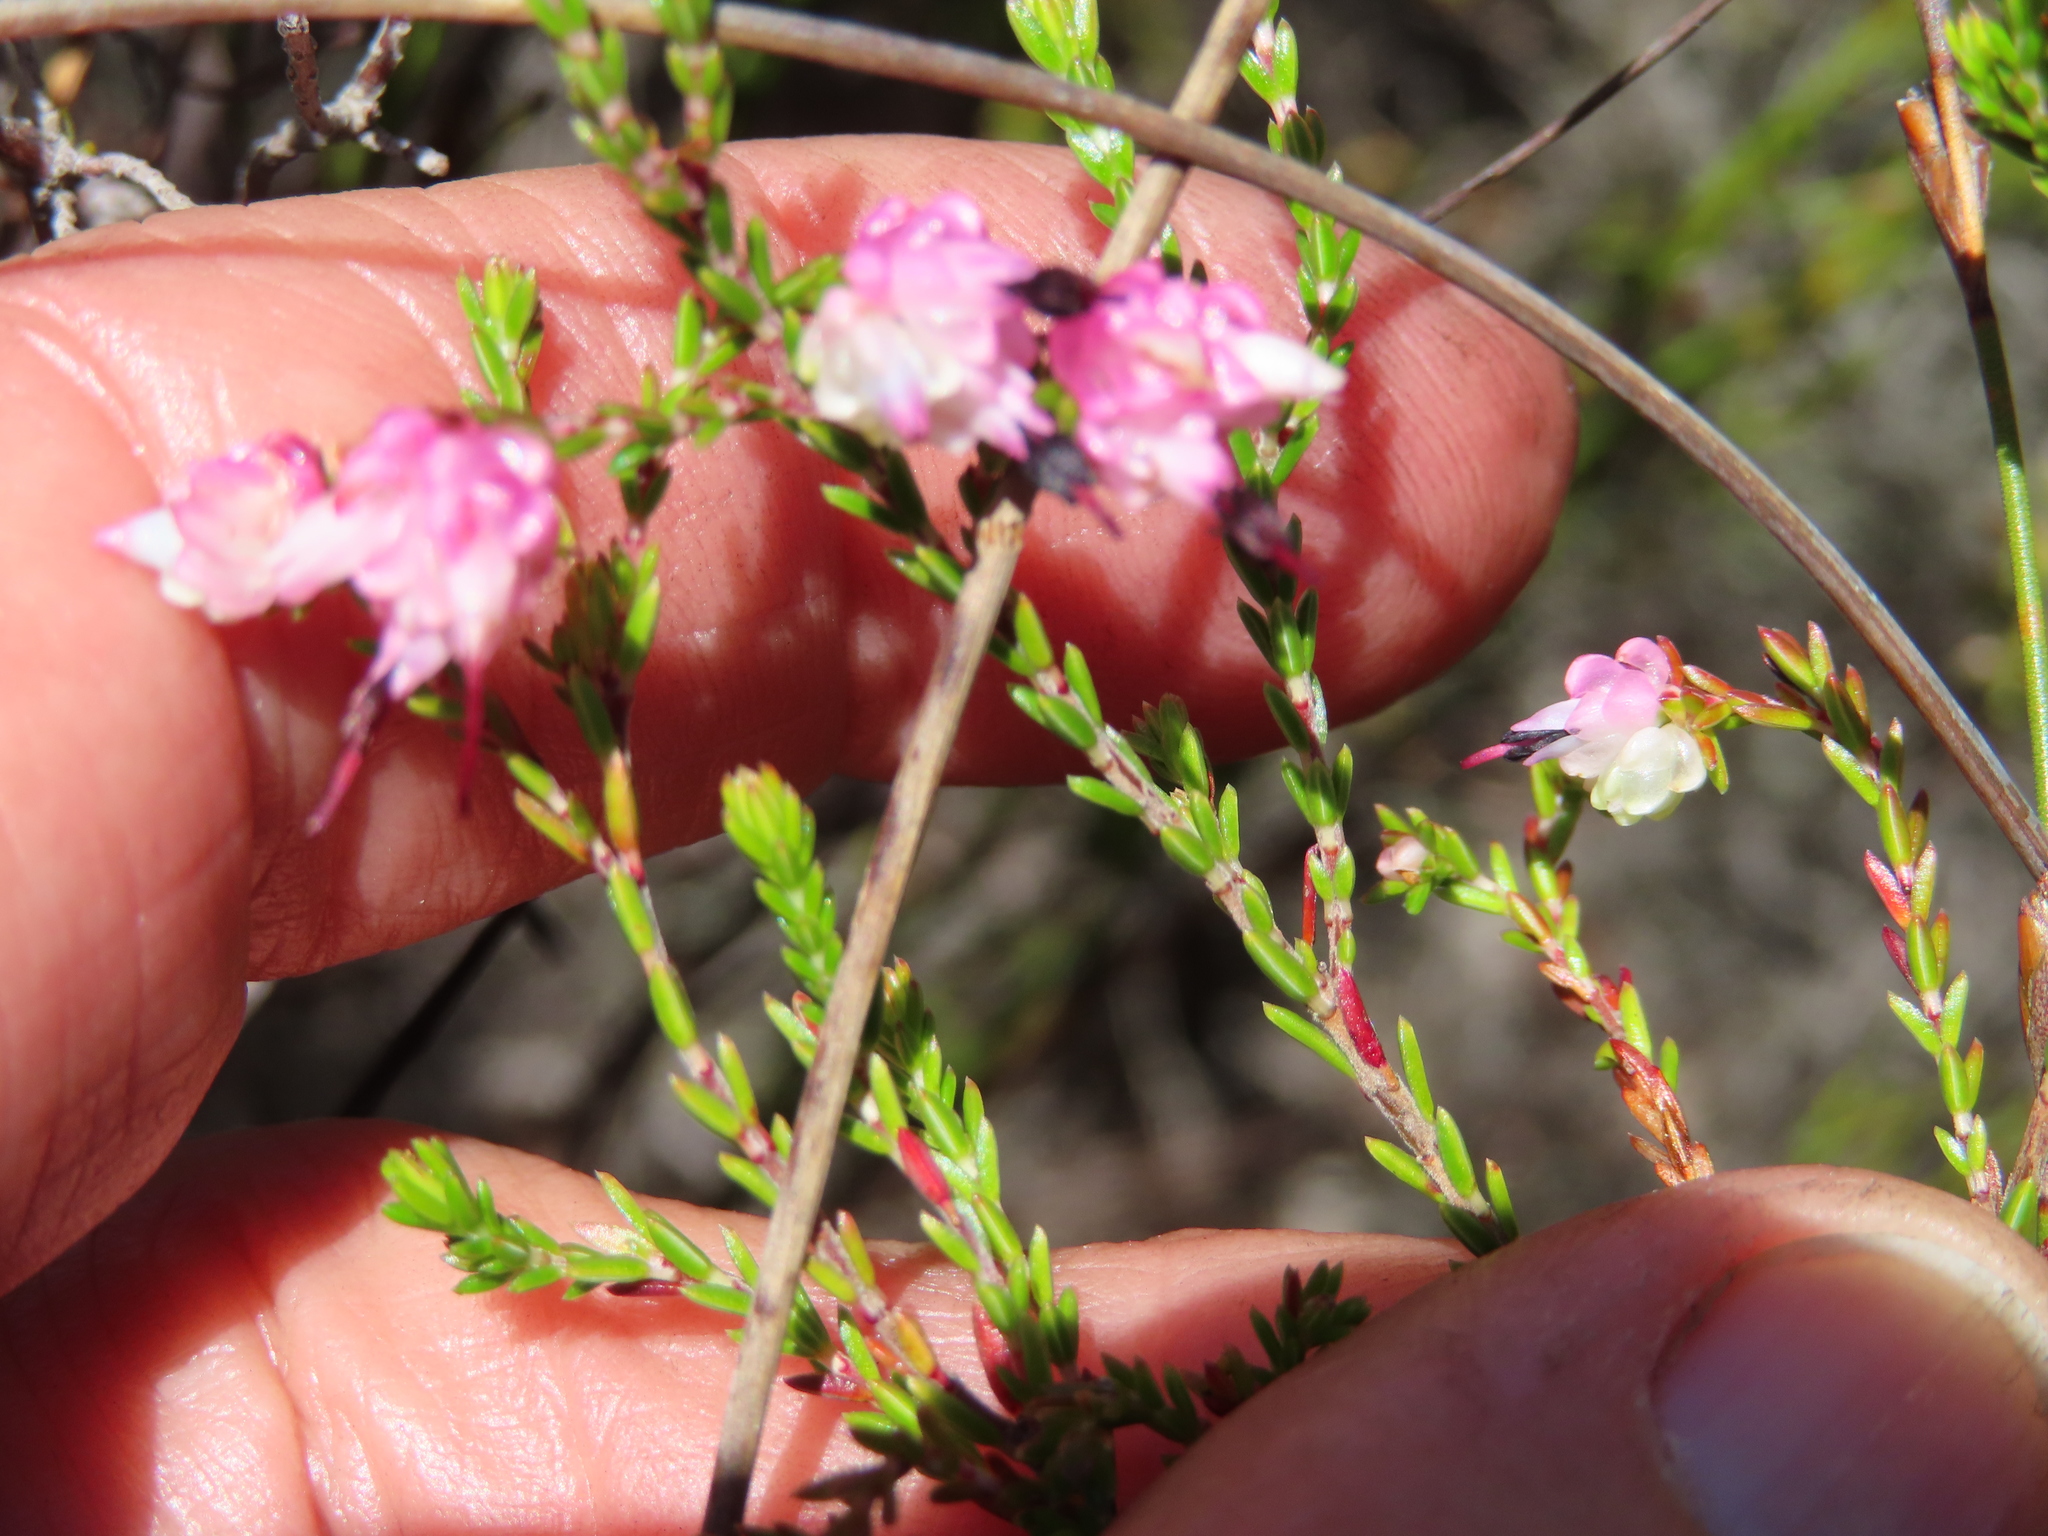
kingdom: Plantae
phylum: Tracheophyta
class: Magnoliopsida
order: Ericales
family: Ericaceae
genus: Erica
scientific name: Erica spumosa
